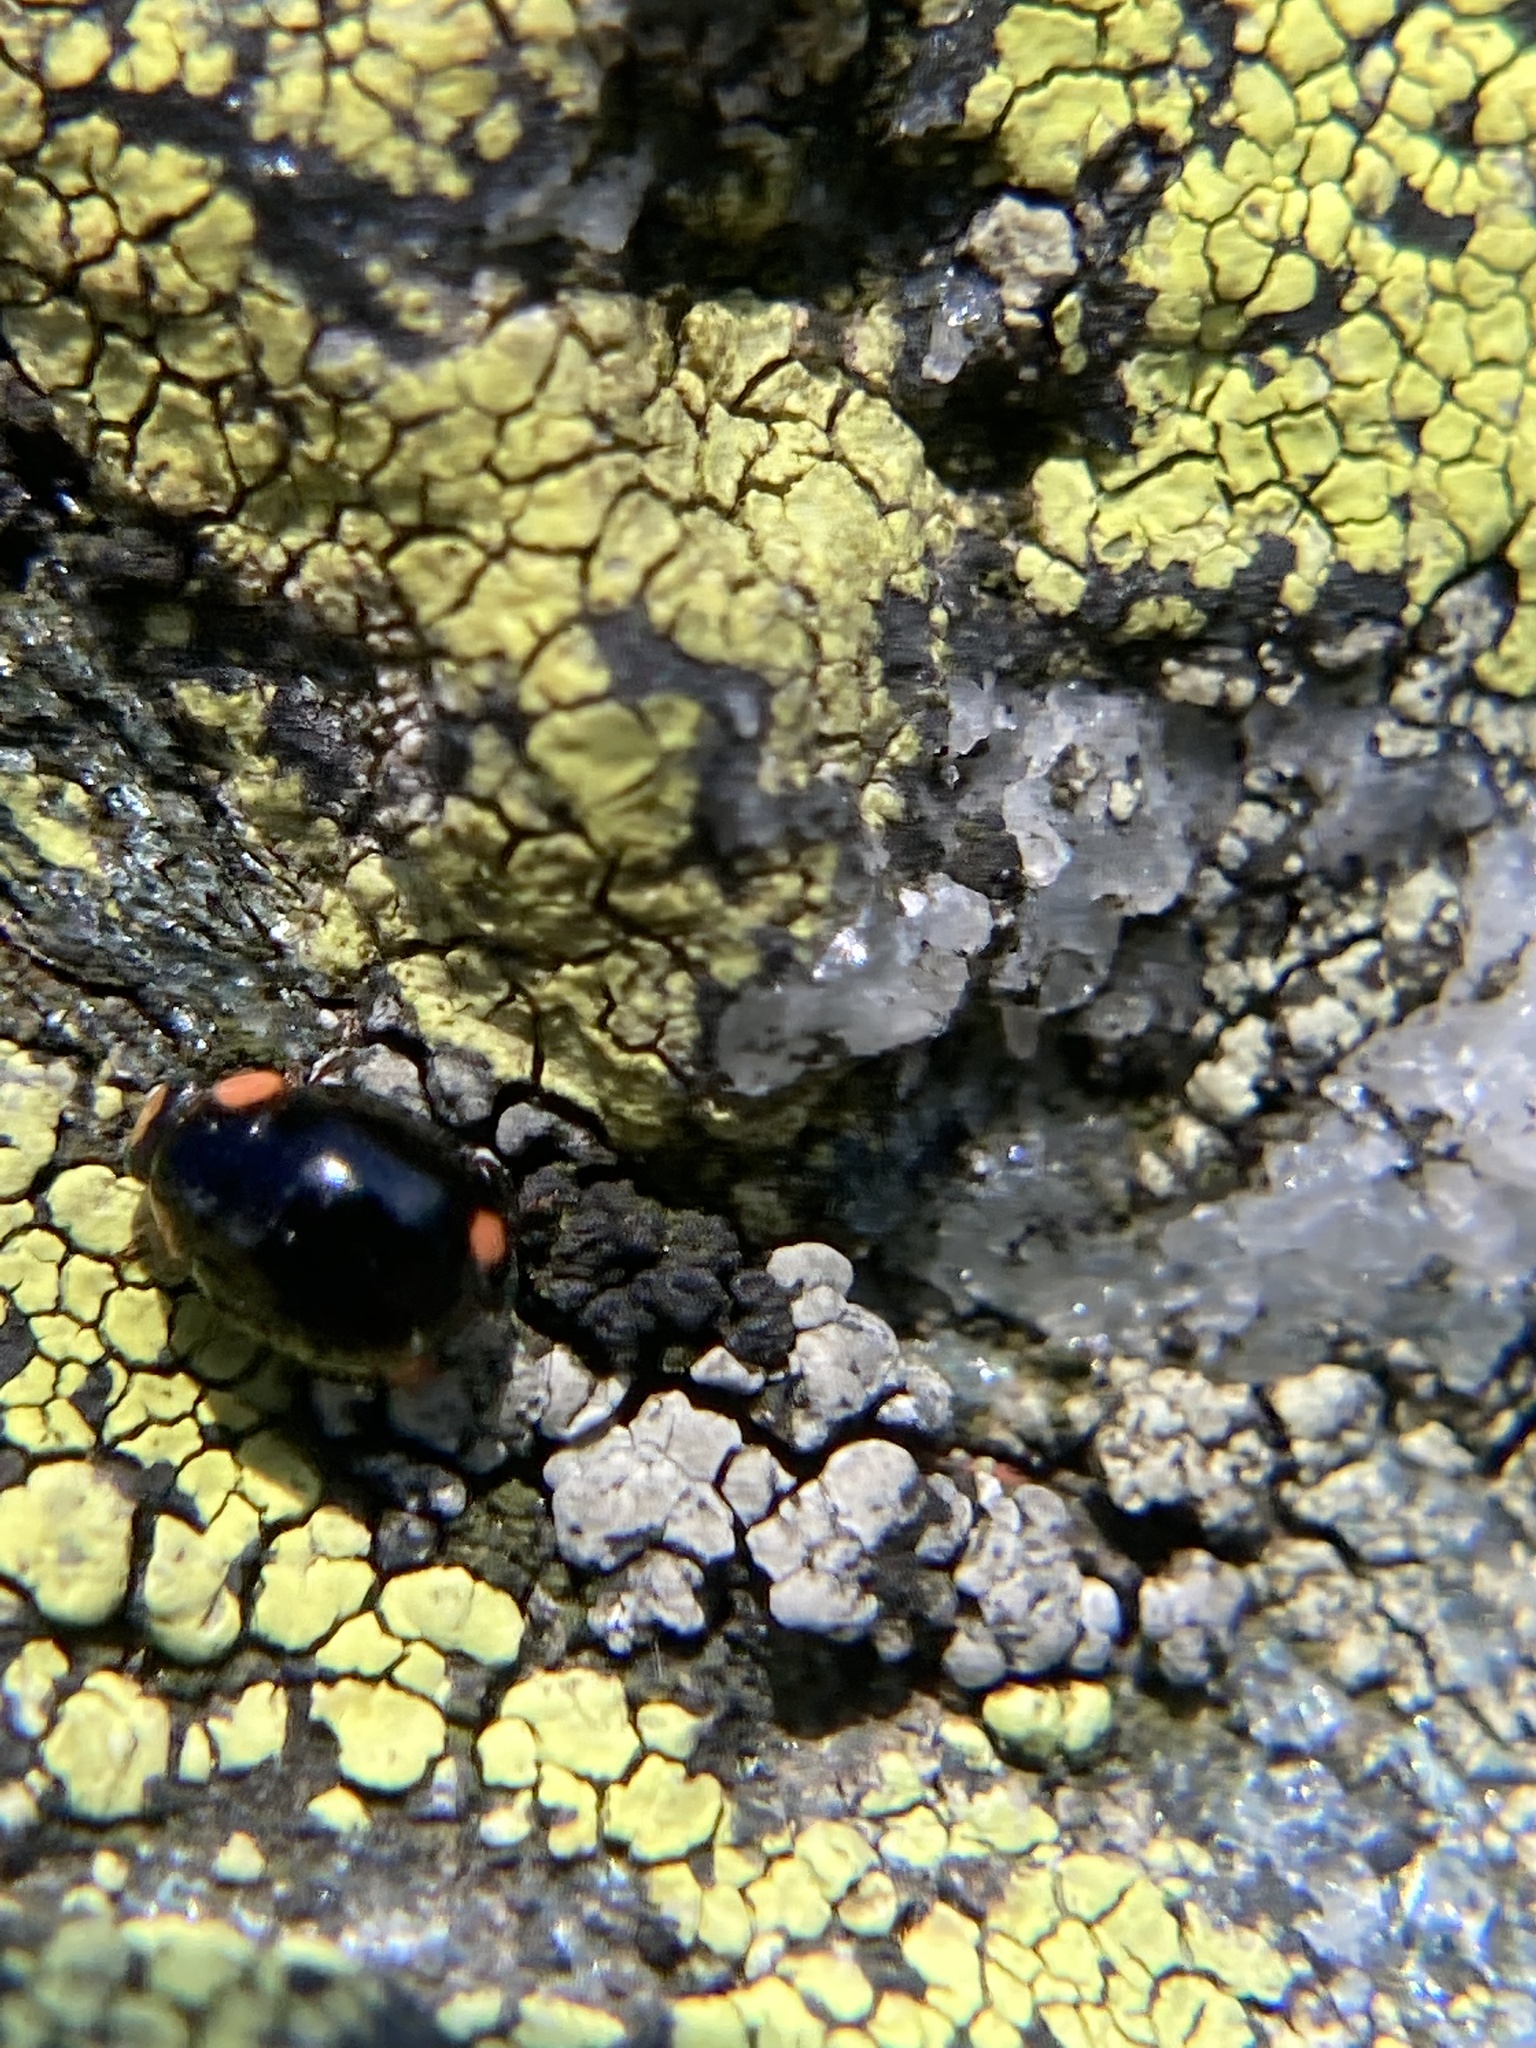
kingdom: Animalia
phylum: Arthropoda
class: Insecta
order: Coleoptera
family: Coccinellidae
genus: Hyperaspis
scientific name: Hyperaspis bigeminata
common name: Bigeminate sigil lady beetle
